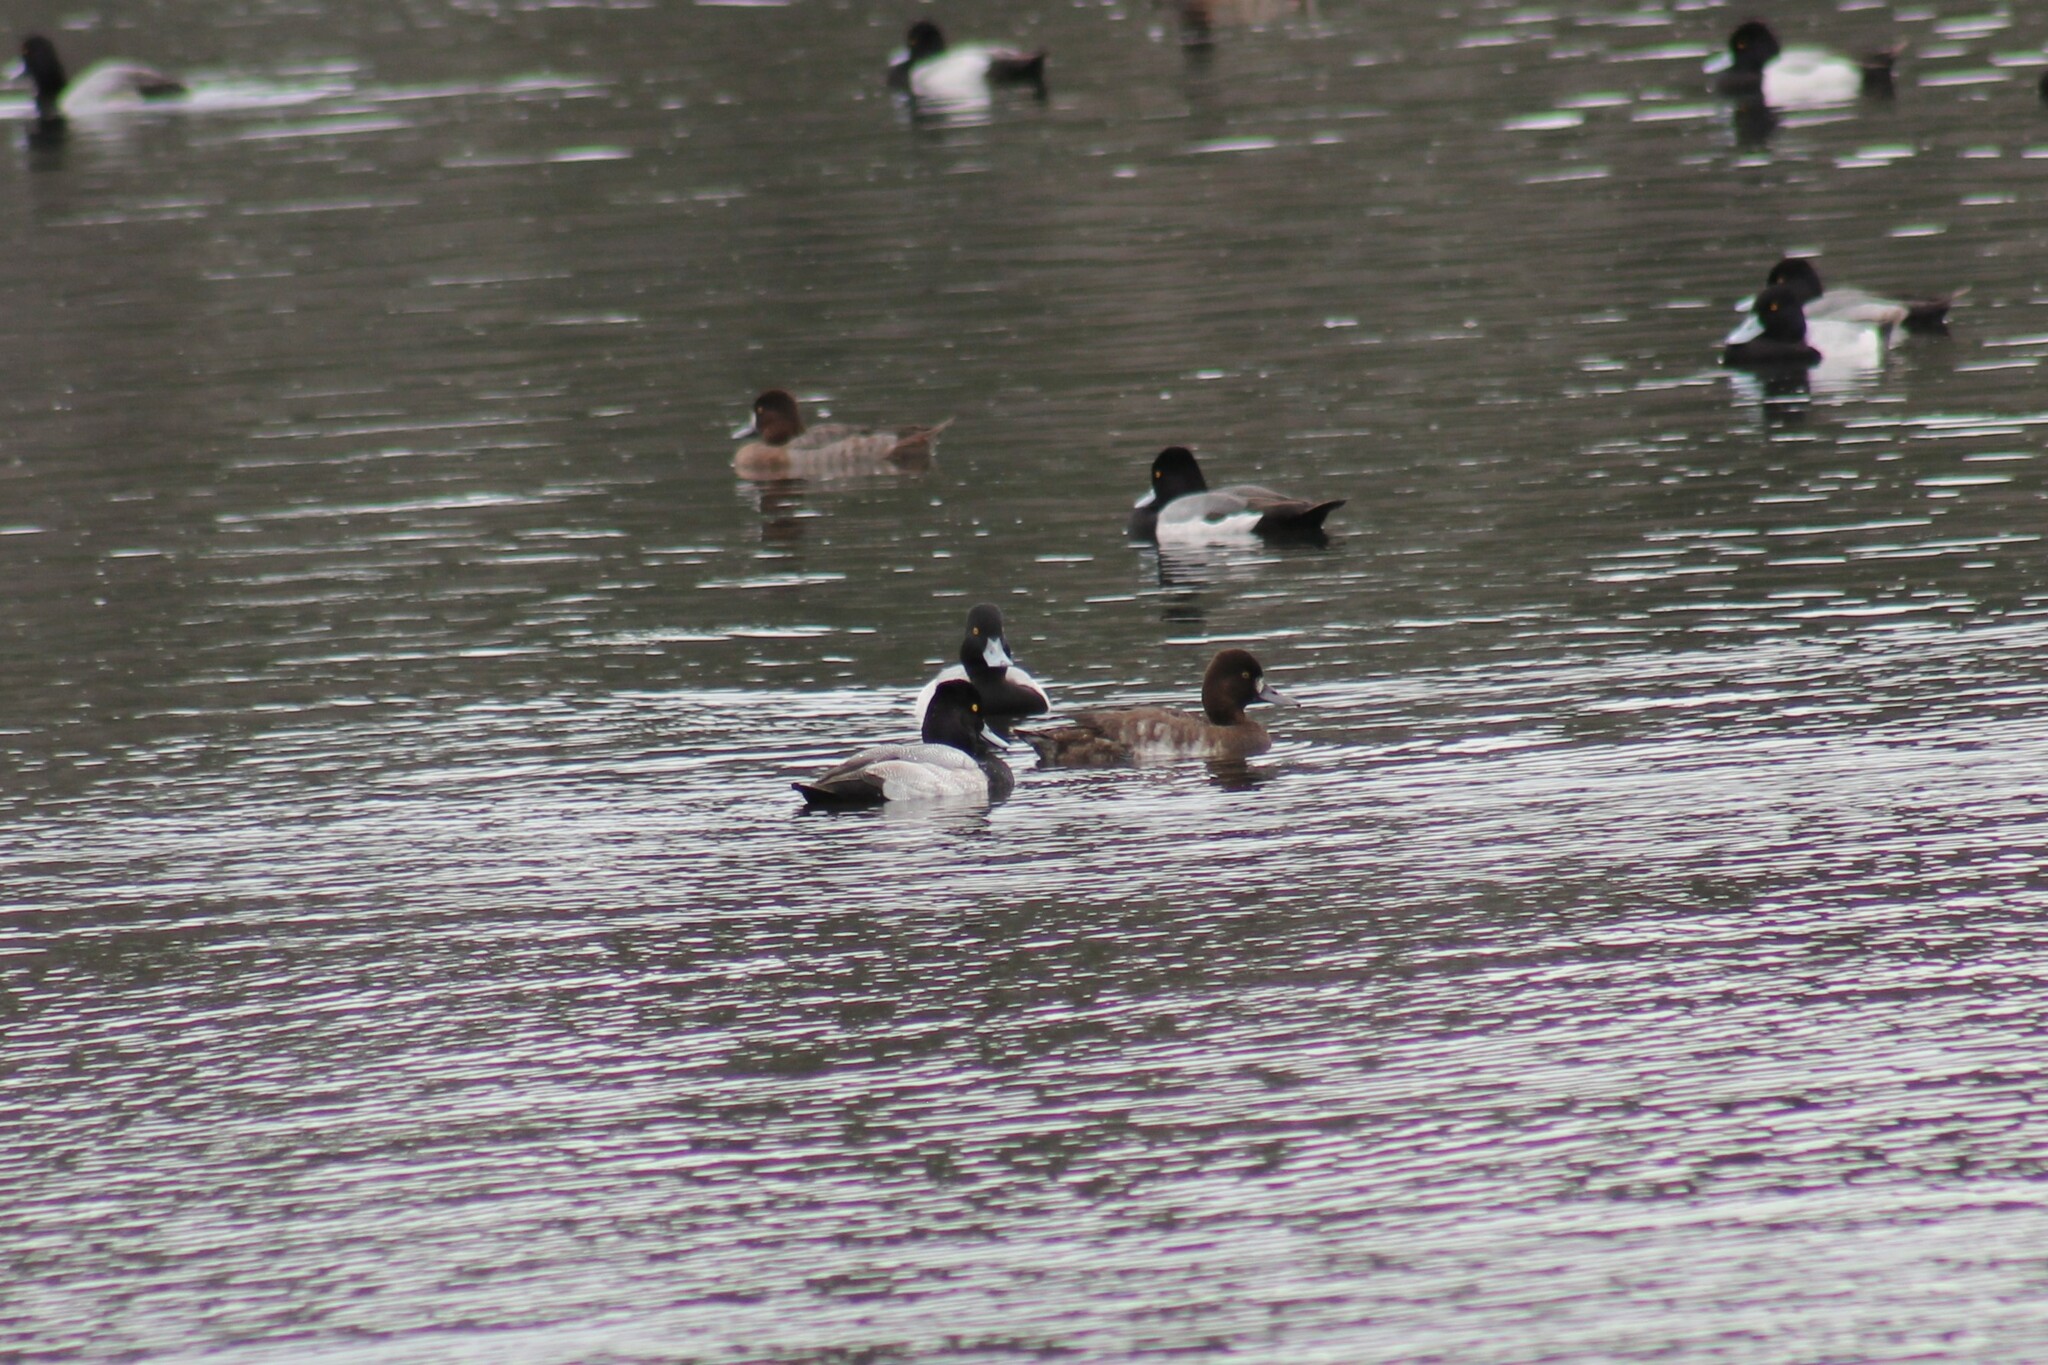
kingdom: Animalia
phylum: Chordata
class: Aves
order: Anseriformes
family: Anatidae
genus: Aythya
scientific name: Aythya affinis
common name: Lesser scaup
